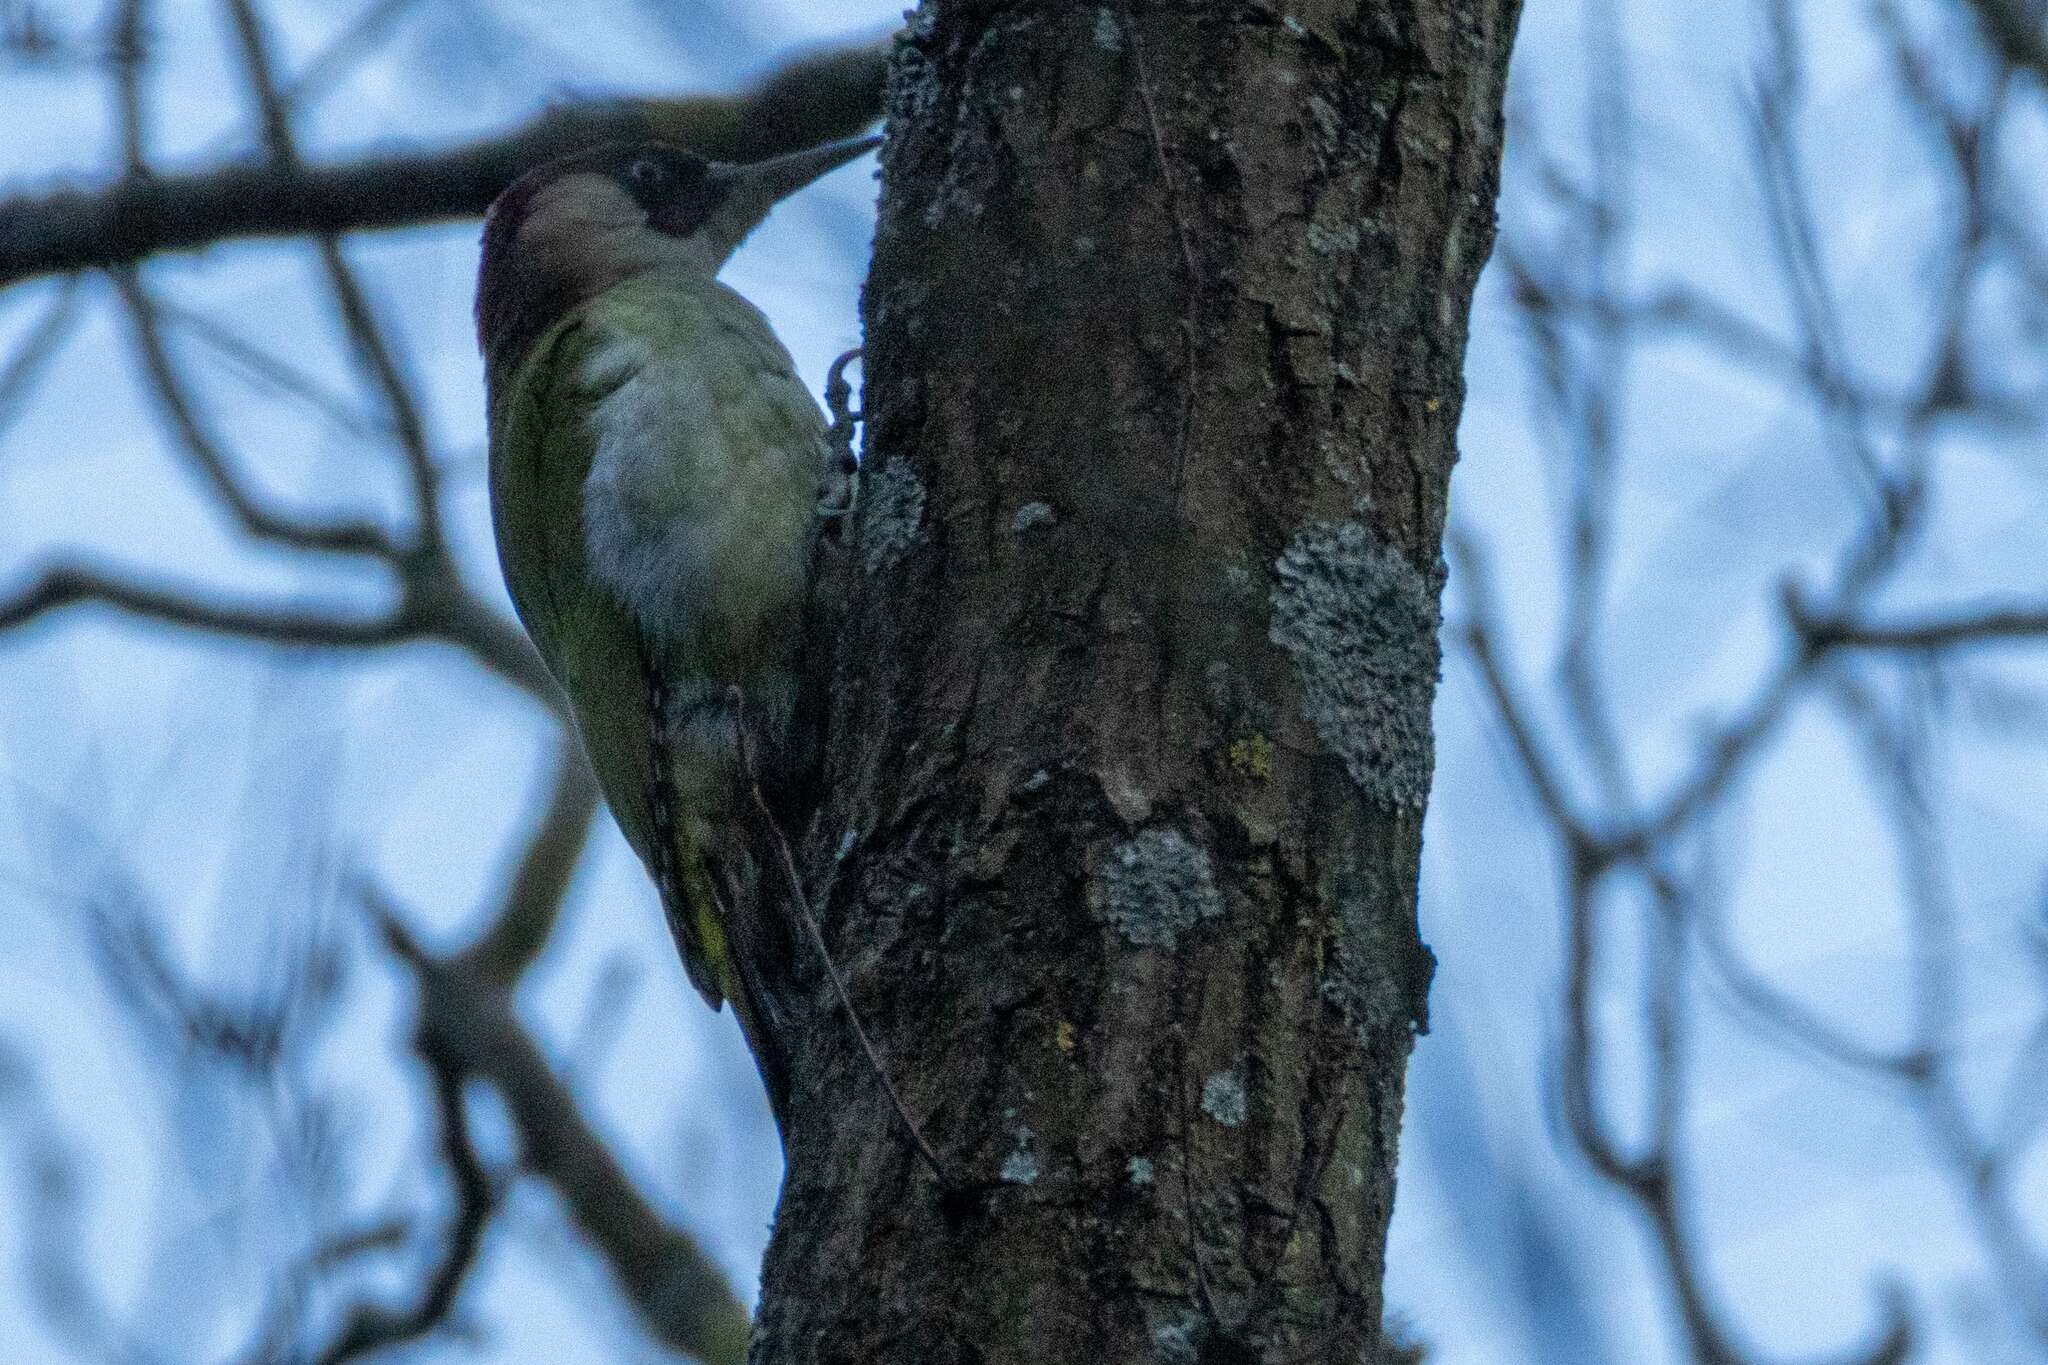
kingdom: Animalia
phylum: Chordata
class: Aves
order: Piciformes
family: Picidae
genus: Picus
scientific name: Picus viridis
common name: European green woodpecker
